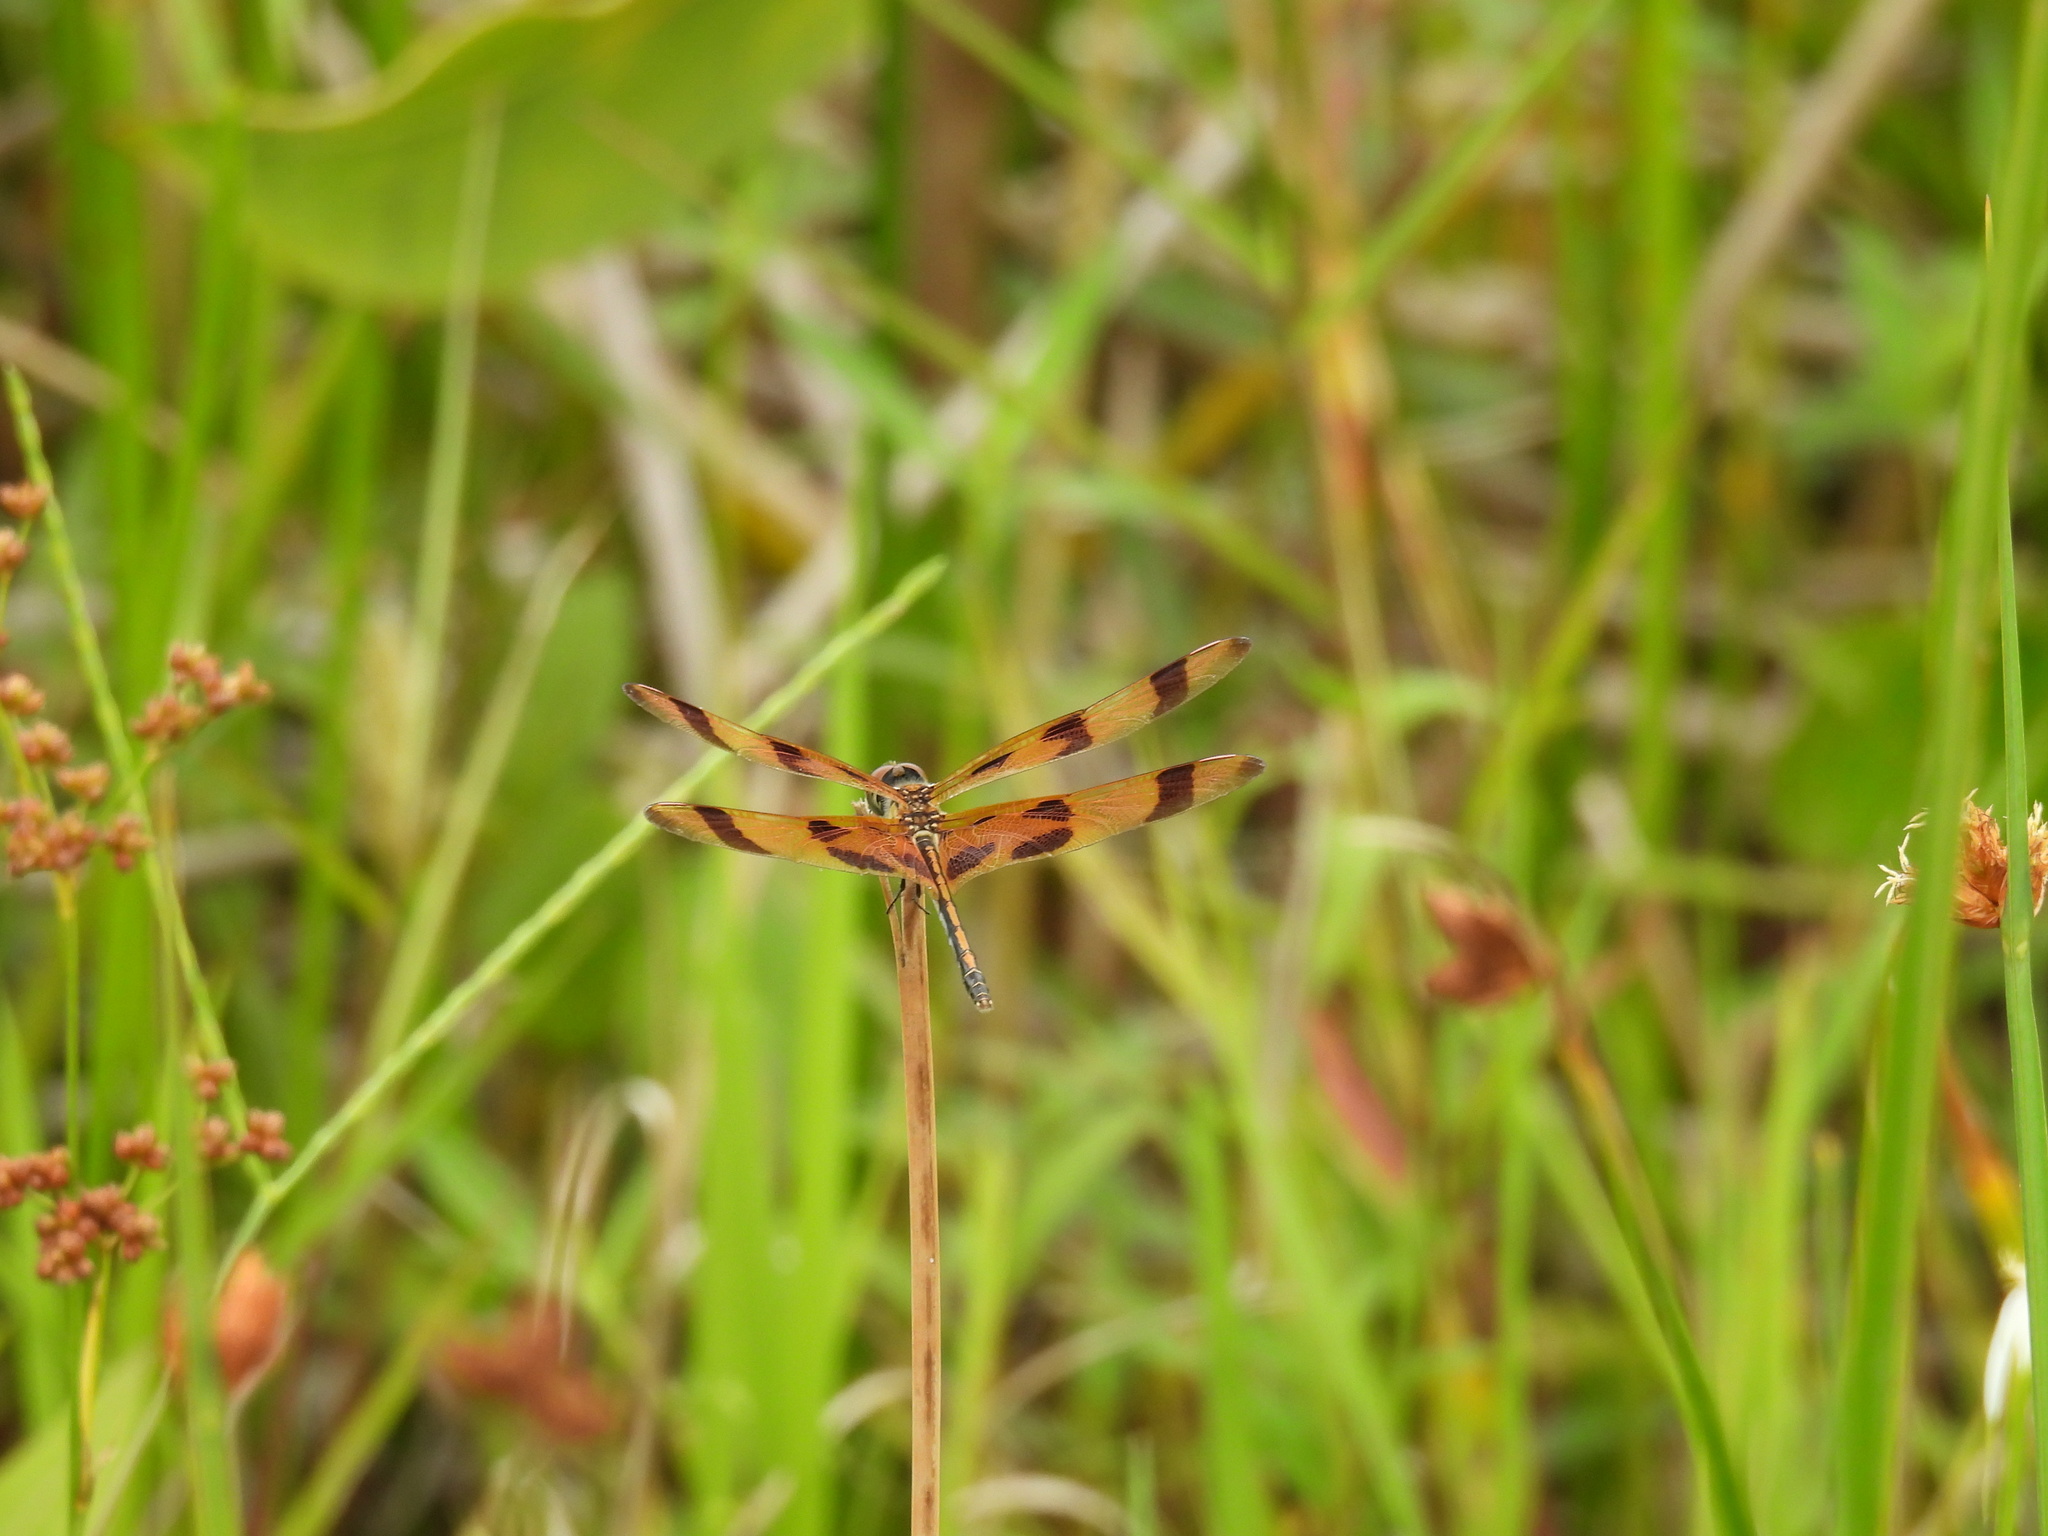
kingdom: Animalia
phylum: Arthropoda
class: Insecta
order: Odonata
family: Libellulidae
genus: Celithemis
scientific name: Celithemis eponina
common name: Halloween pennant
